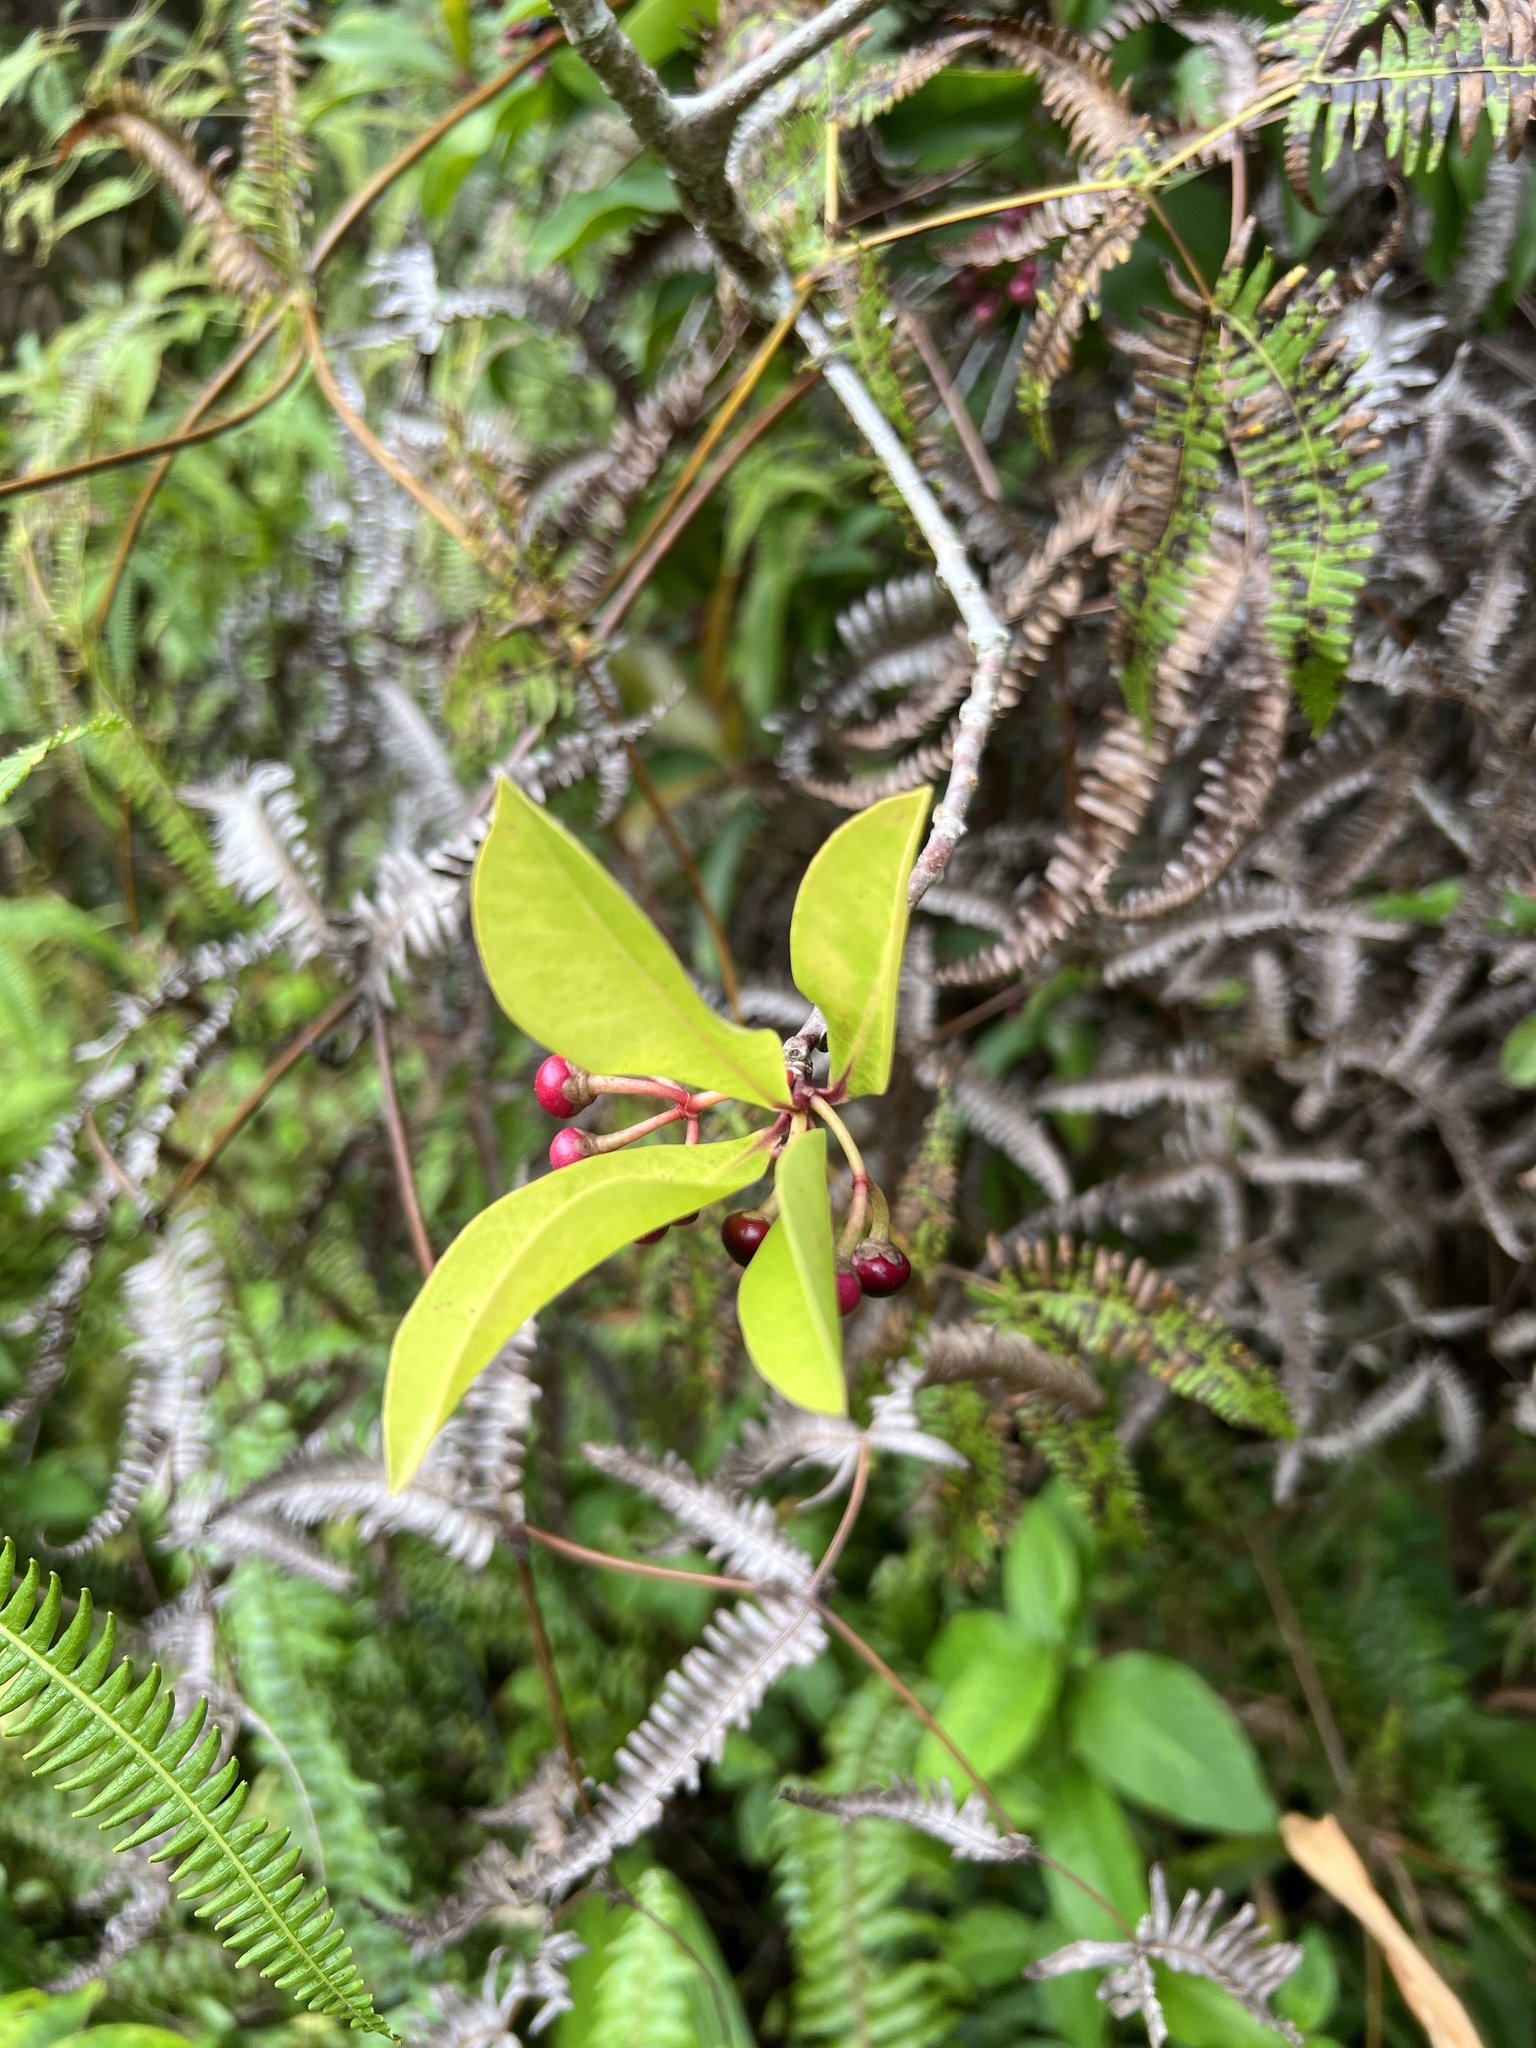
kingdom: Plantae
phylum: Tracheophyta
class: Magnoliopsida
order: Ericales
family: Primulaceae
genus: Ardisia
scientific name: Ardisia elliptica
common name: Shoebutton
